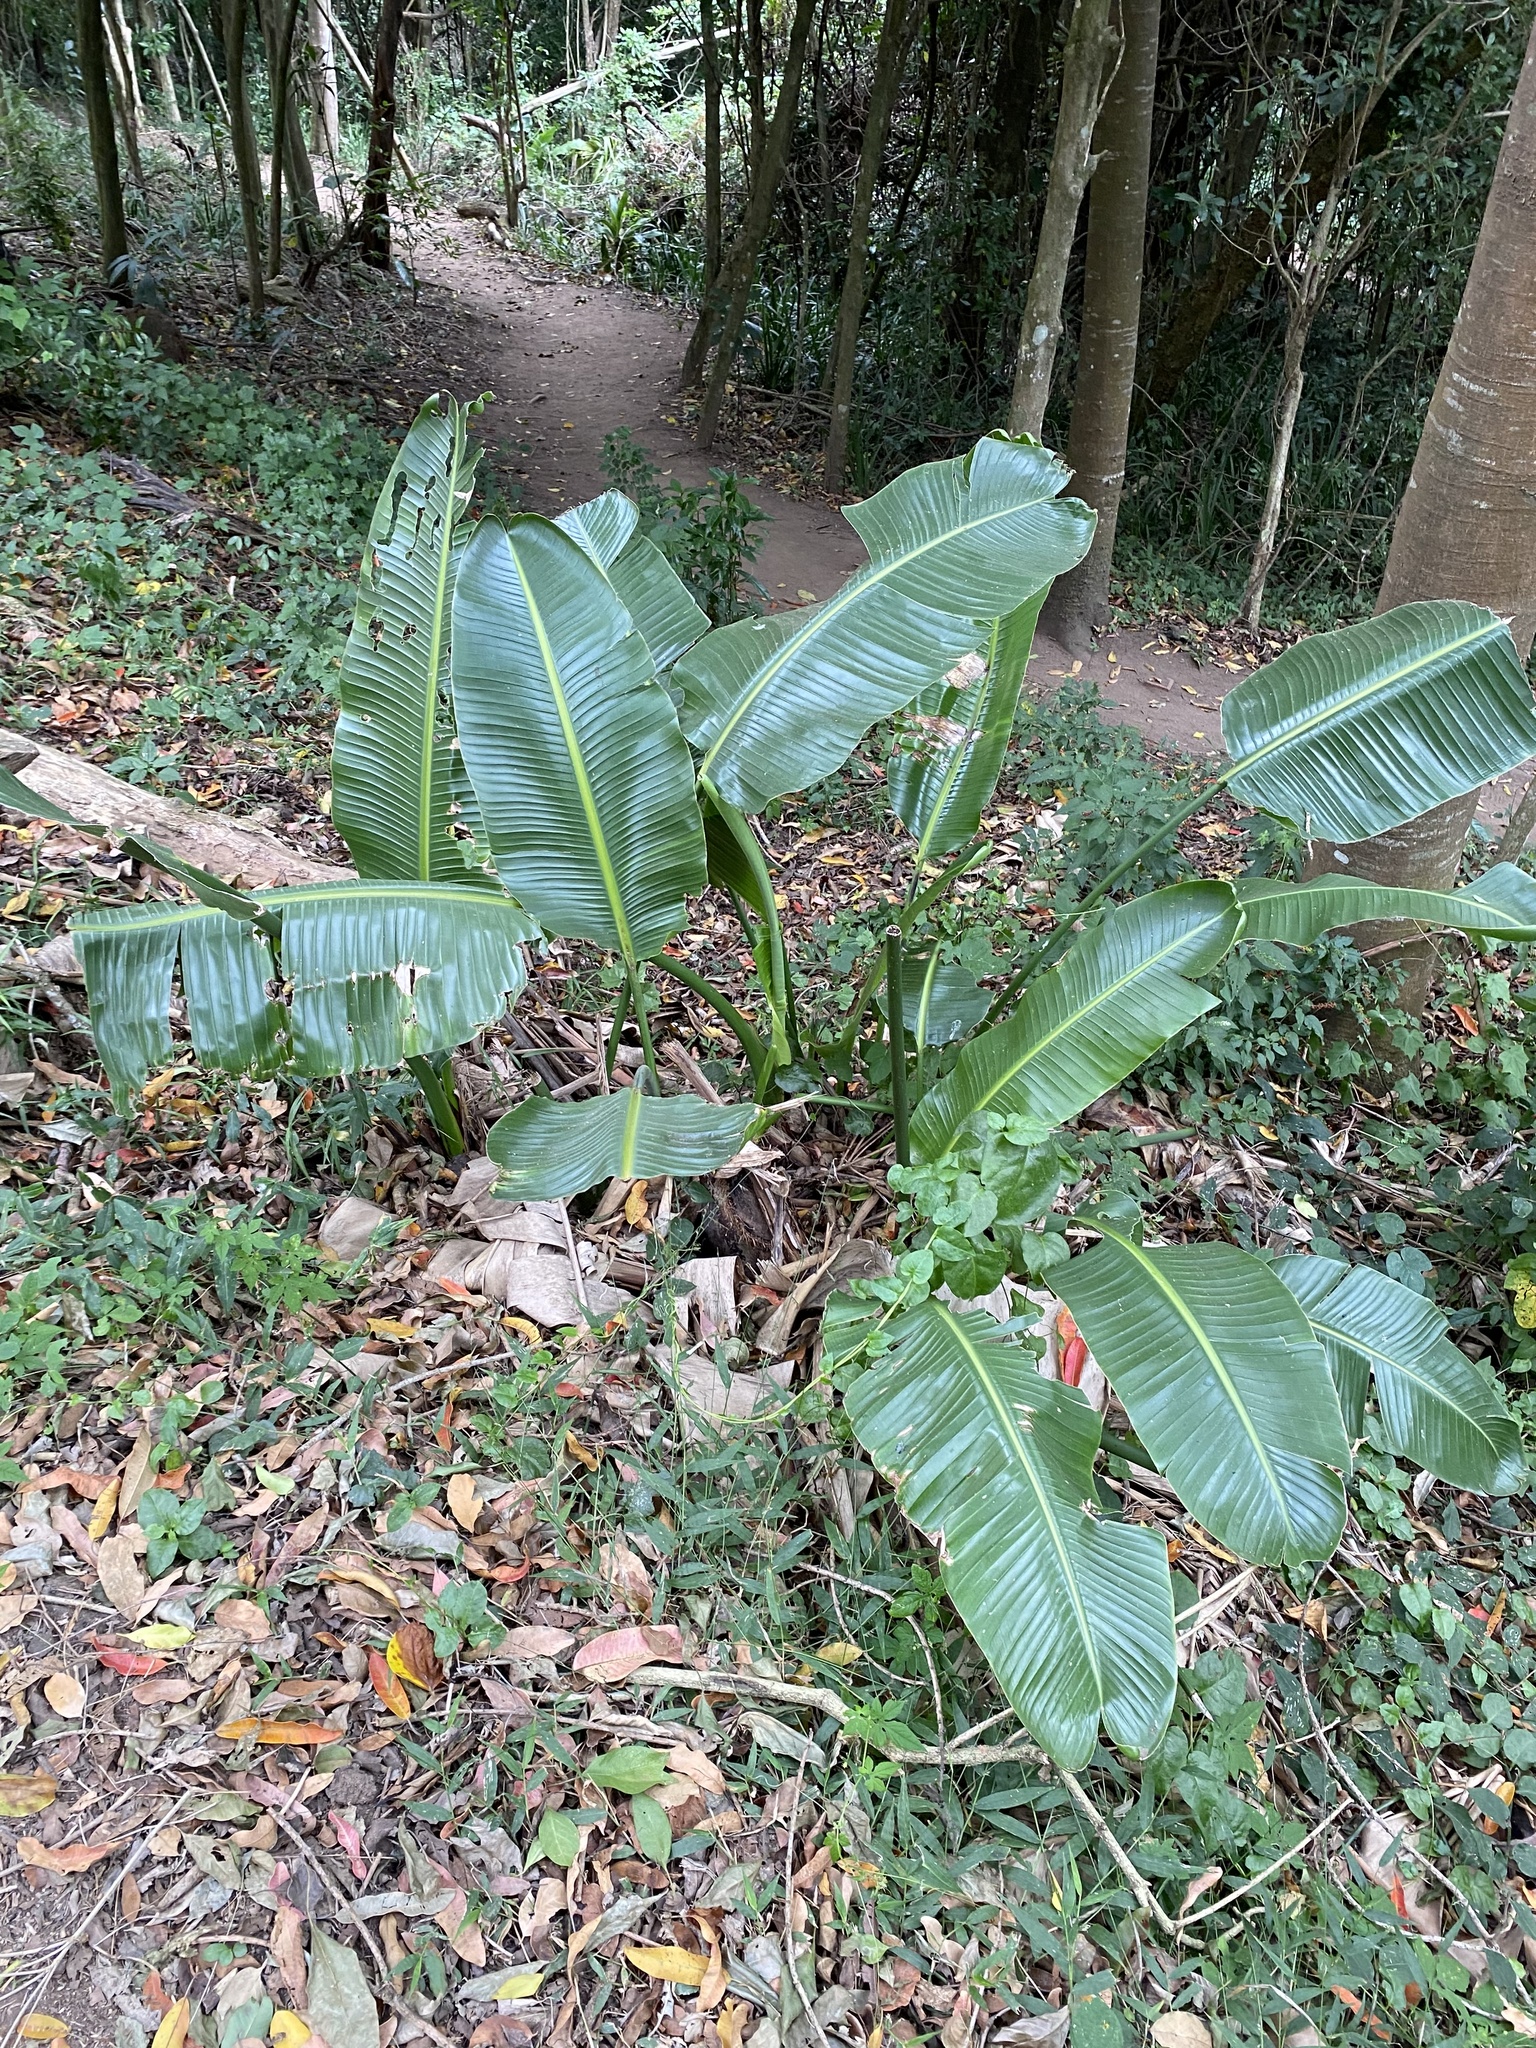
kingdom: Plantae
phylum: Tracheophyta
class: Liliopsida
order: Zingiberales
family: Strelitziaceae
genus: Strelitzia
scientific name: Strelitzia nicolai
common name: Bird-of-paradise tree
